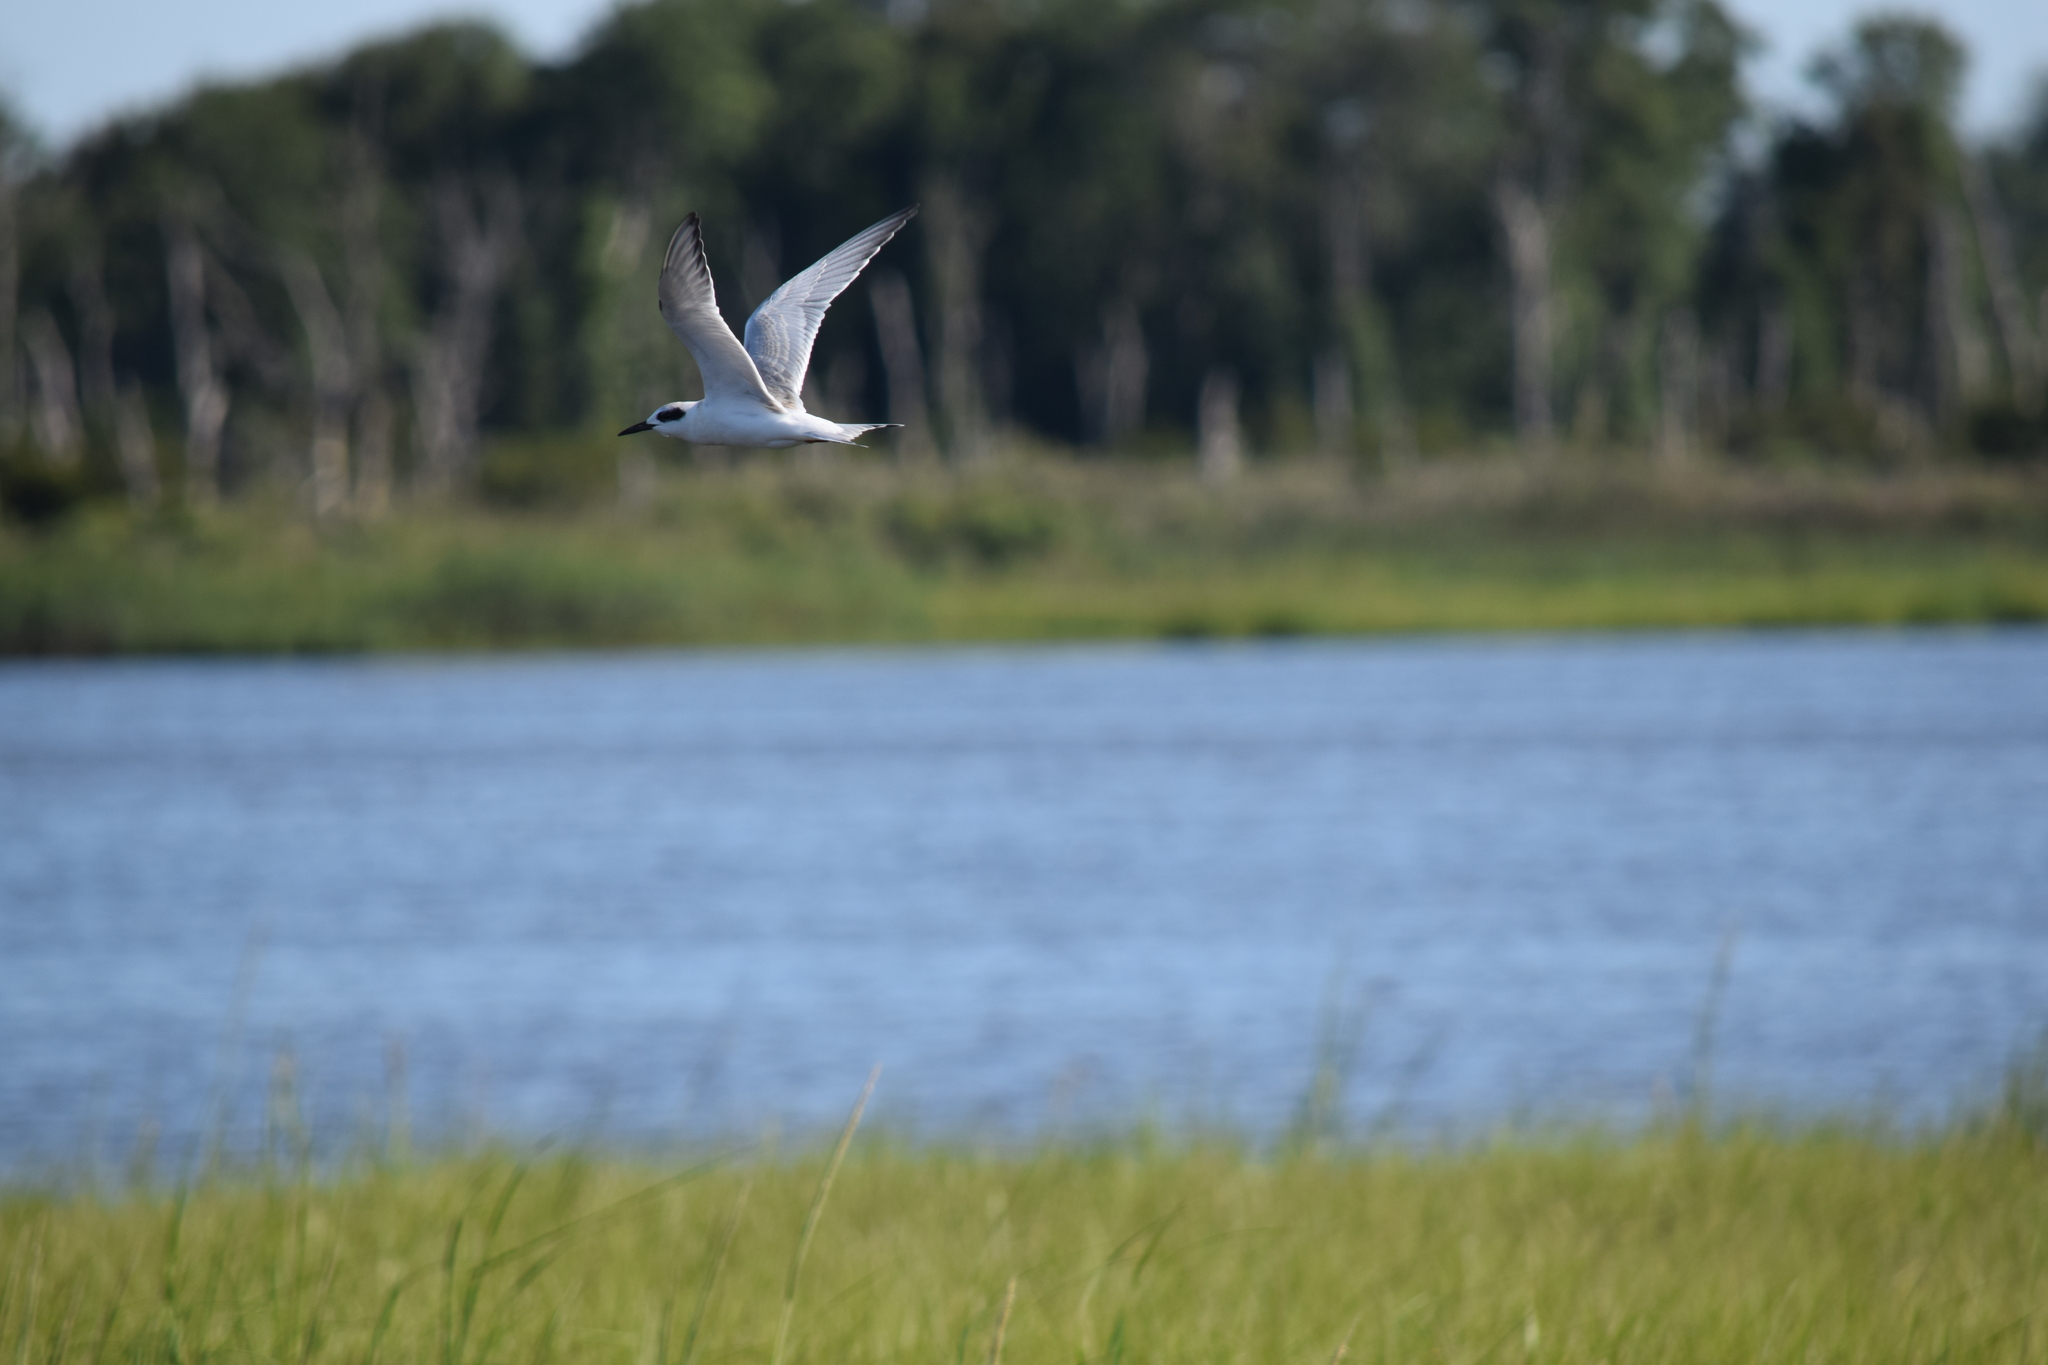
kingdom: Animalia
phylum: Chordata
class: Aves
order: Charadriiformes
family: Laridae
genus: Sterna
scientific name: Sterna forsteri
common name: Forster's tern
